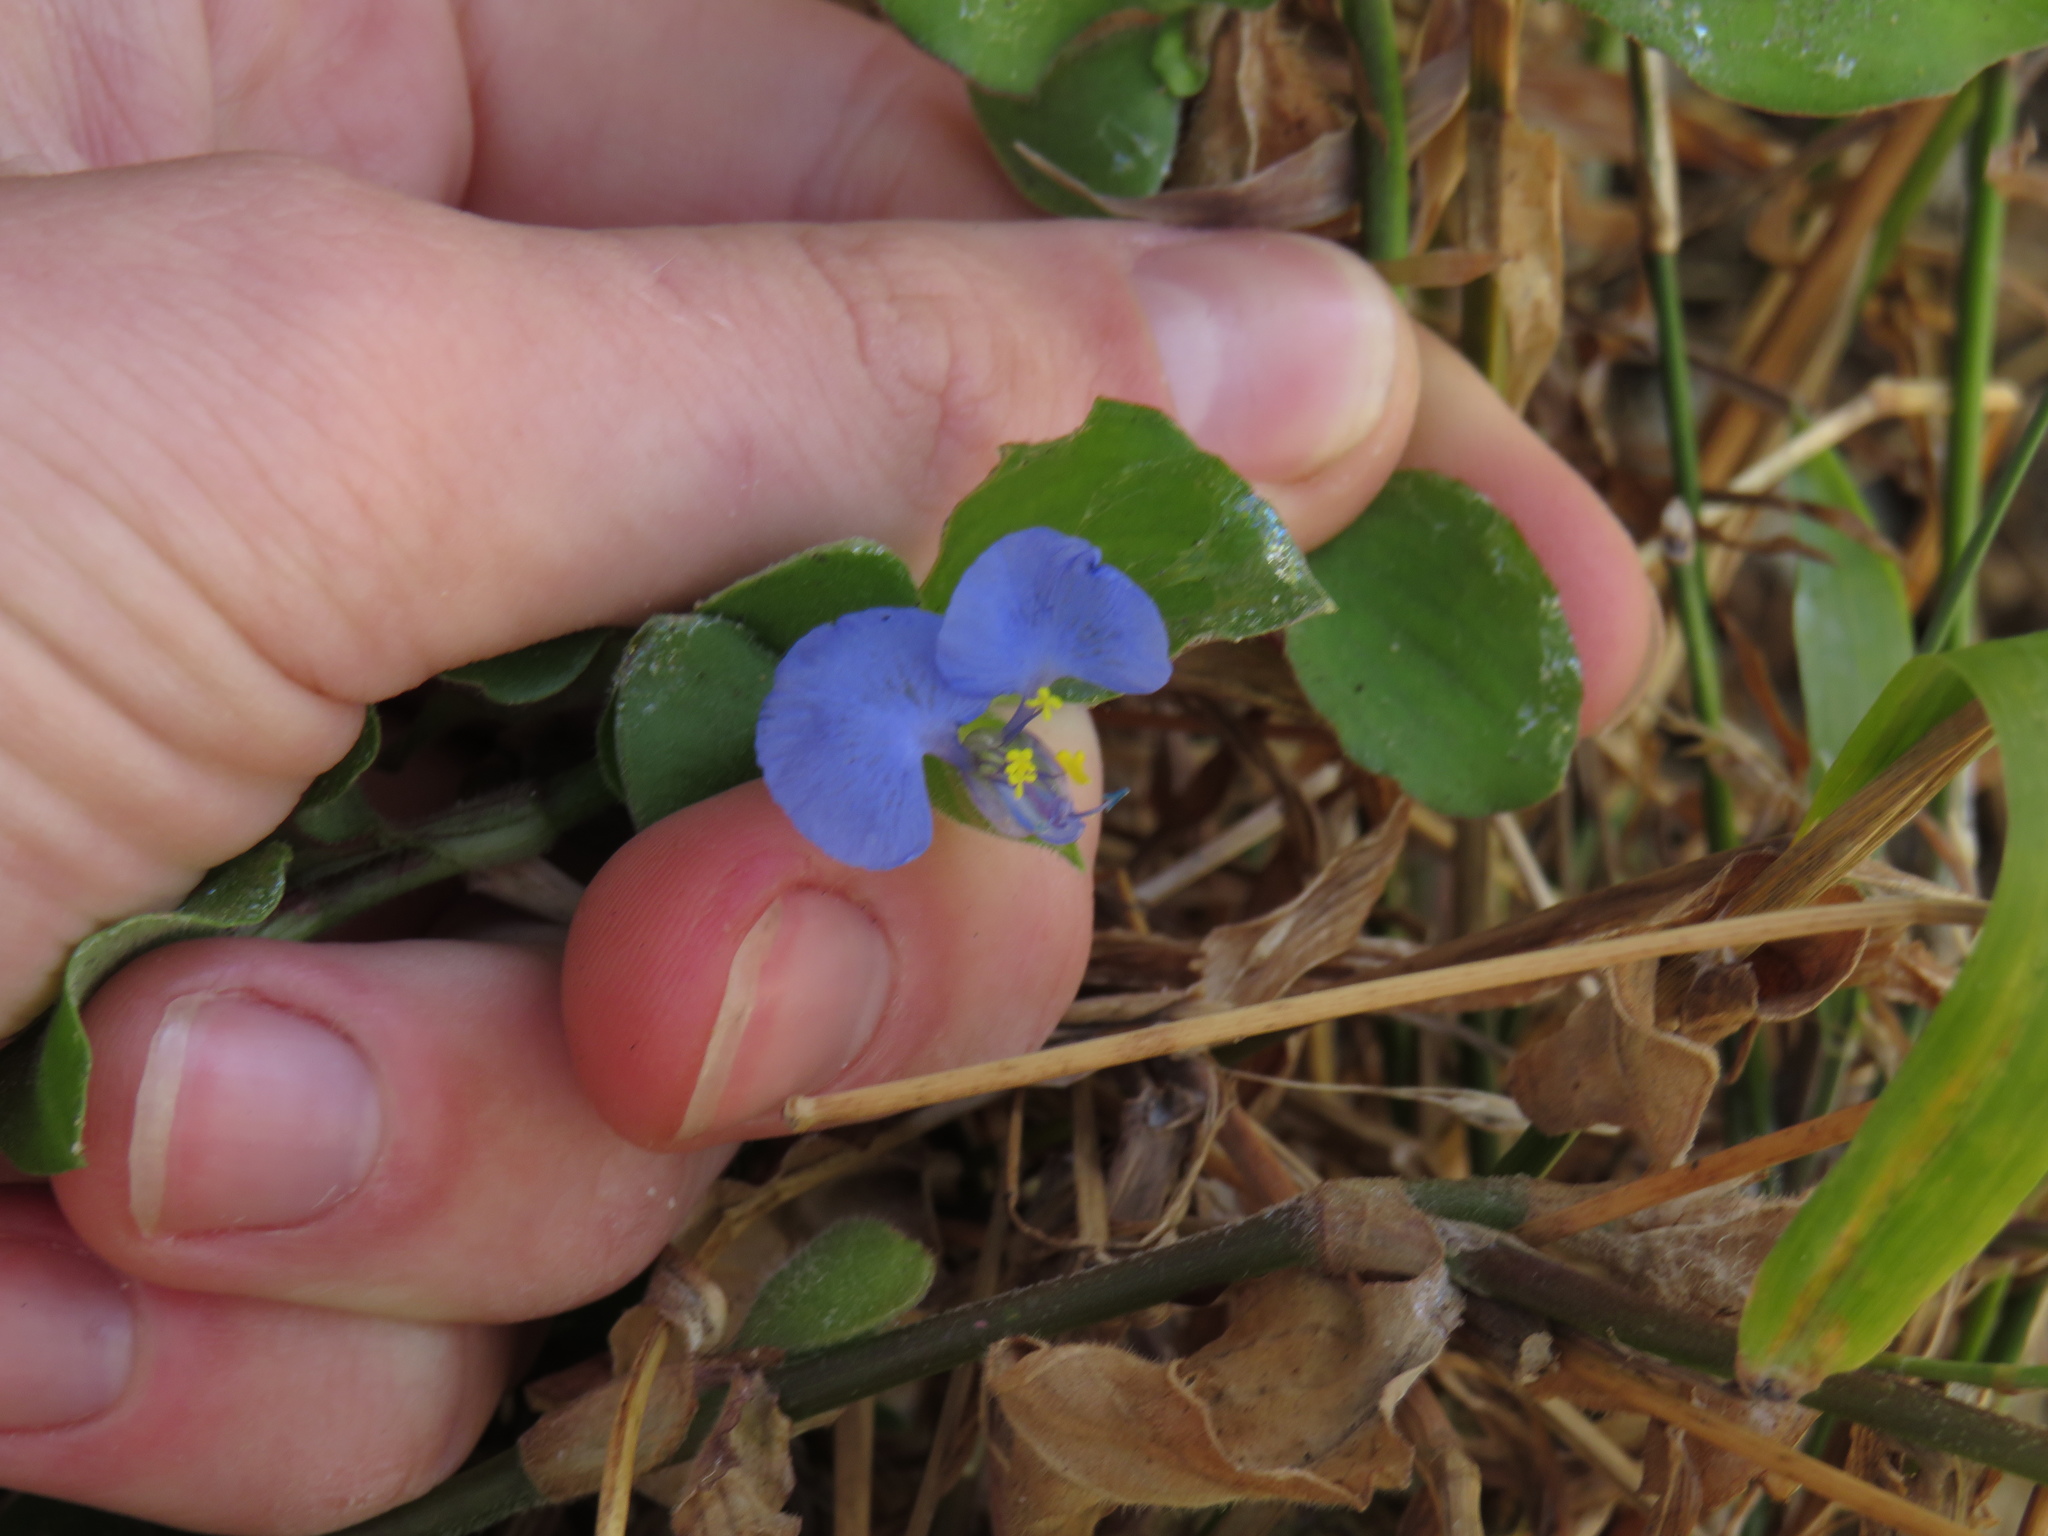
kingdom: Plantae
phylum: Tracheophyta
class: Liliopsida
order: Commelinales
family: Commelinaceae
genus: Commelina
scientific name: Commelina benghalensis
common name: Jio
